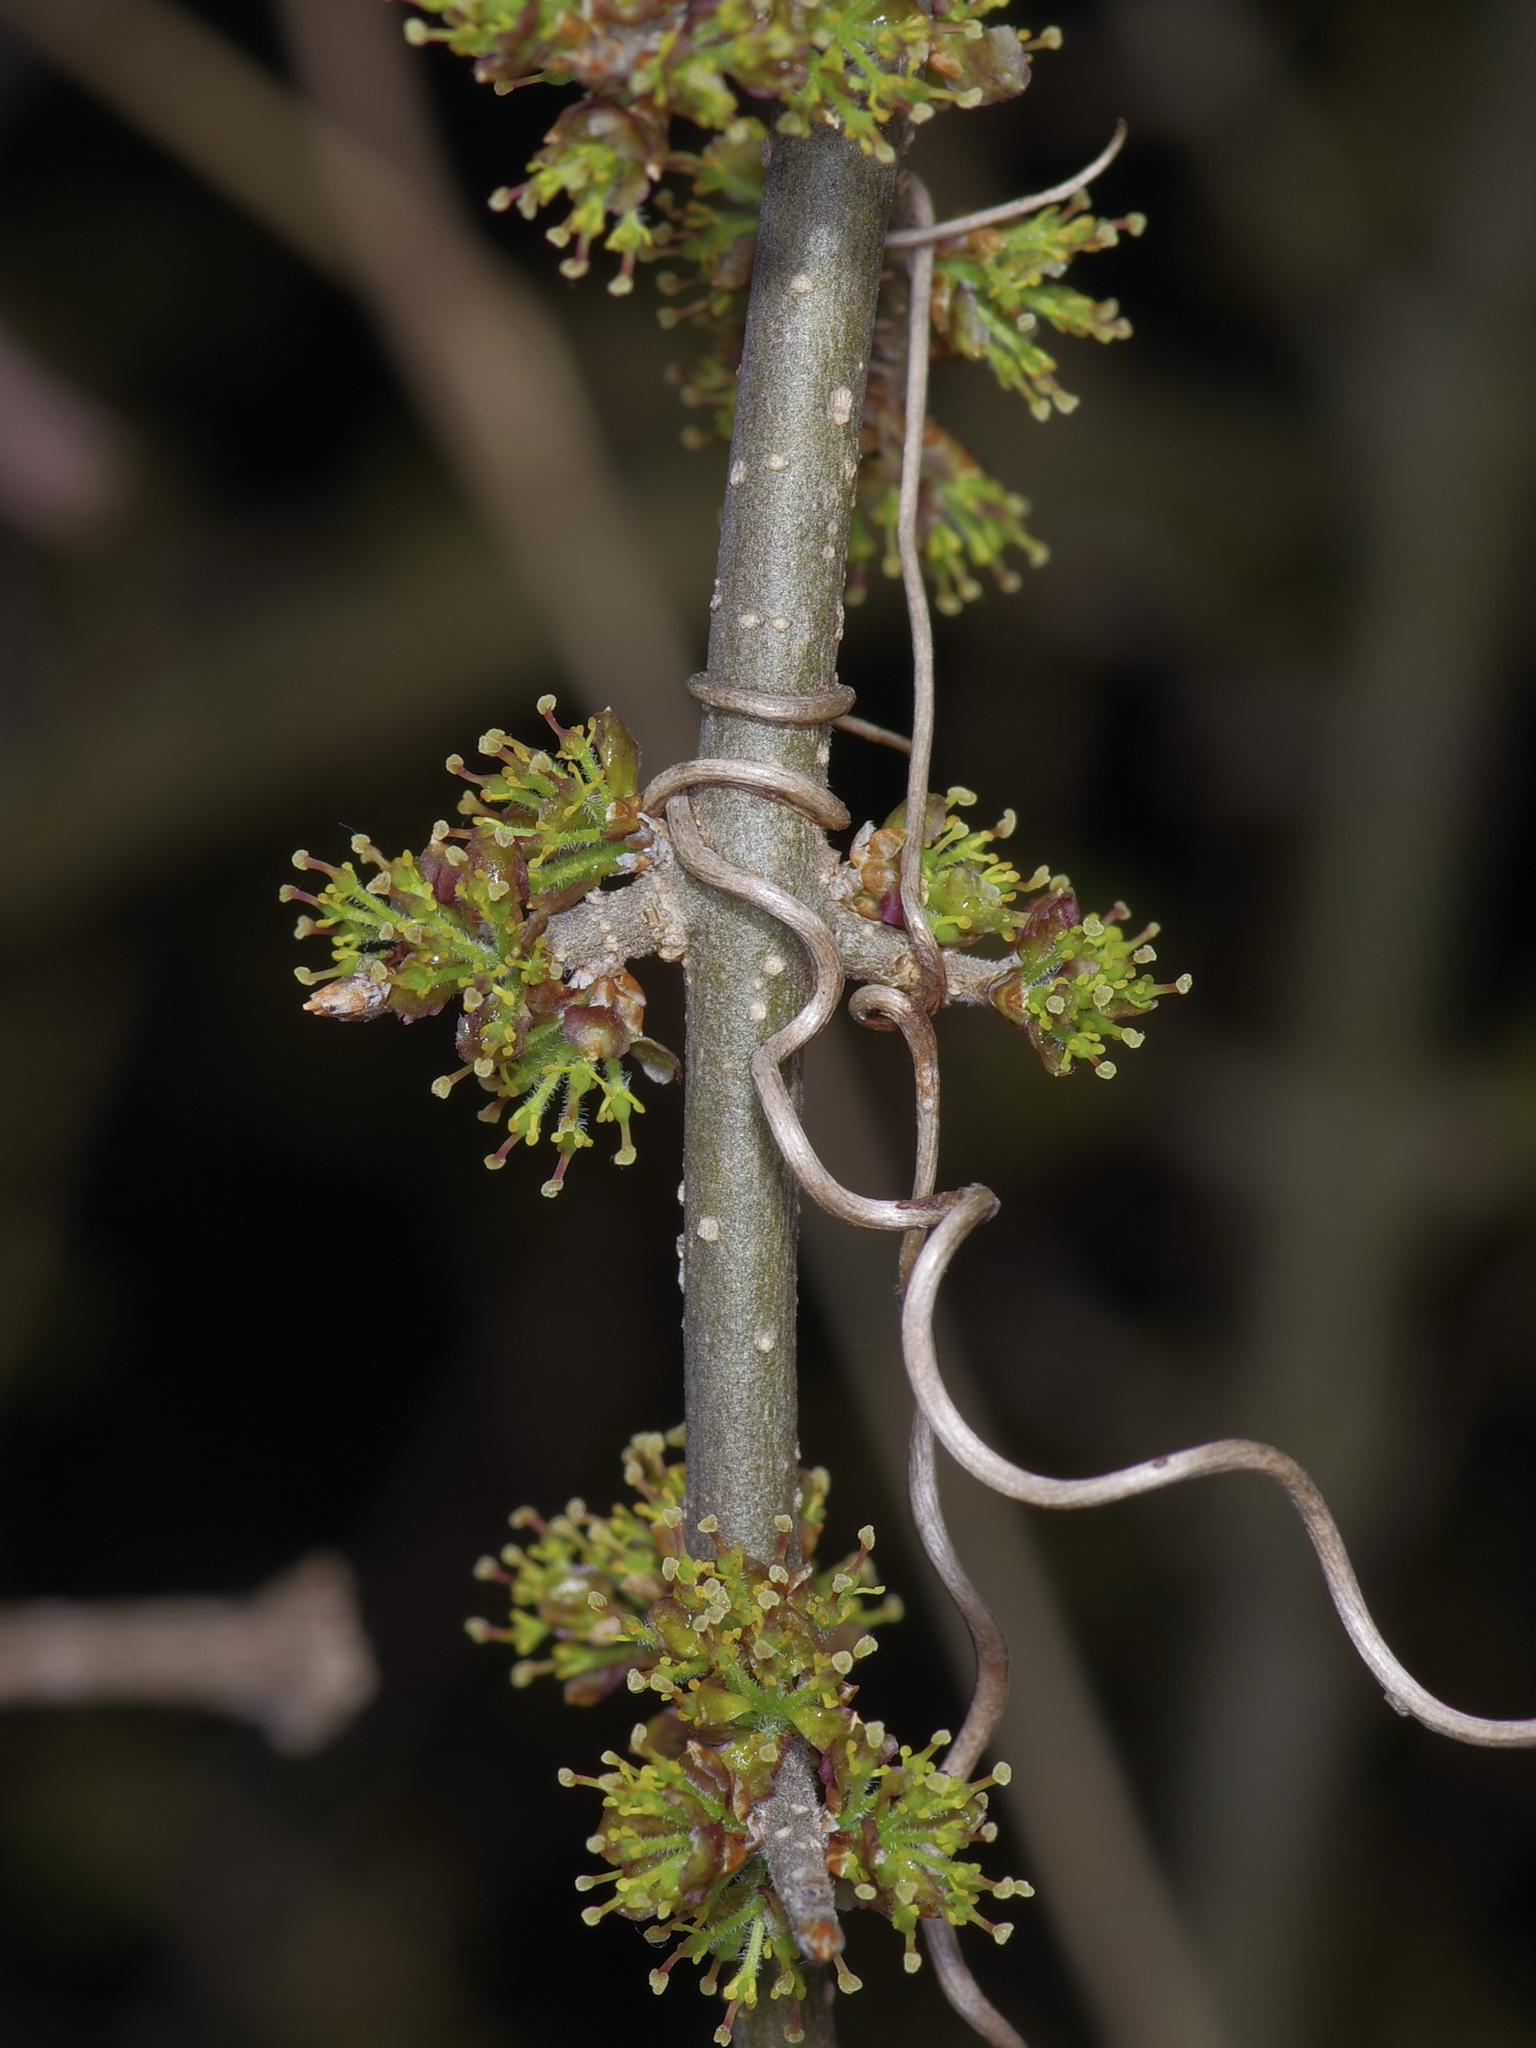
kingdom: Plantae
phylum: Tracheophyta
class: Magnoliopsida
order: Lamiales
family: Oleaceae
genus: Forestiera
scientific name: Forestiera pubescens
